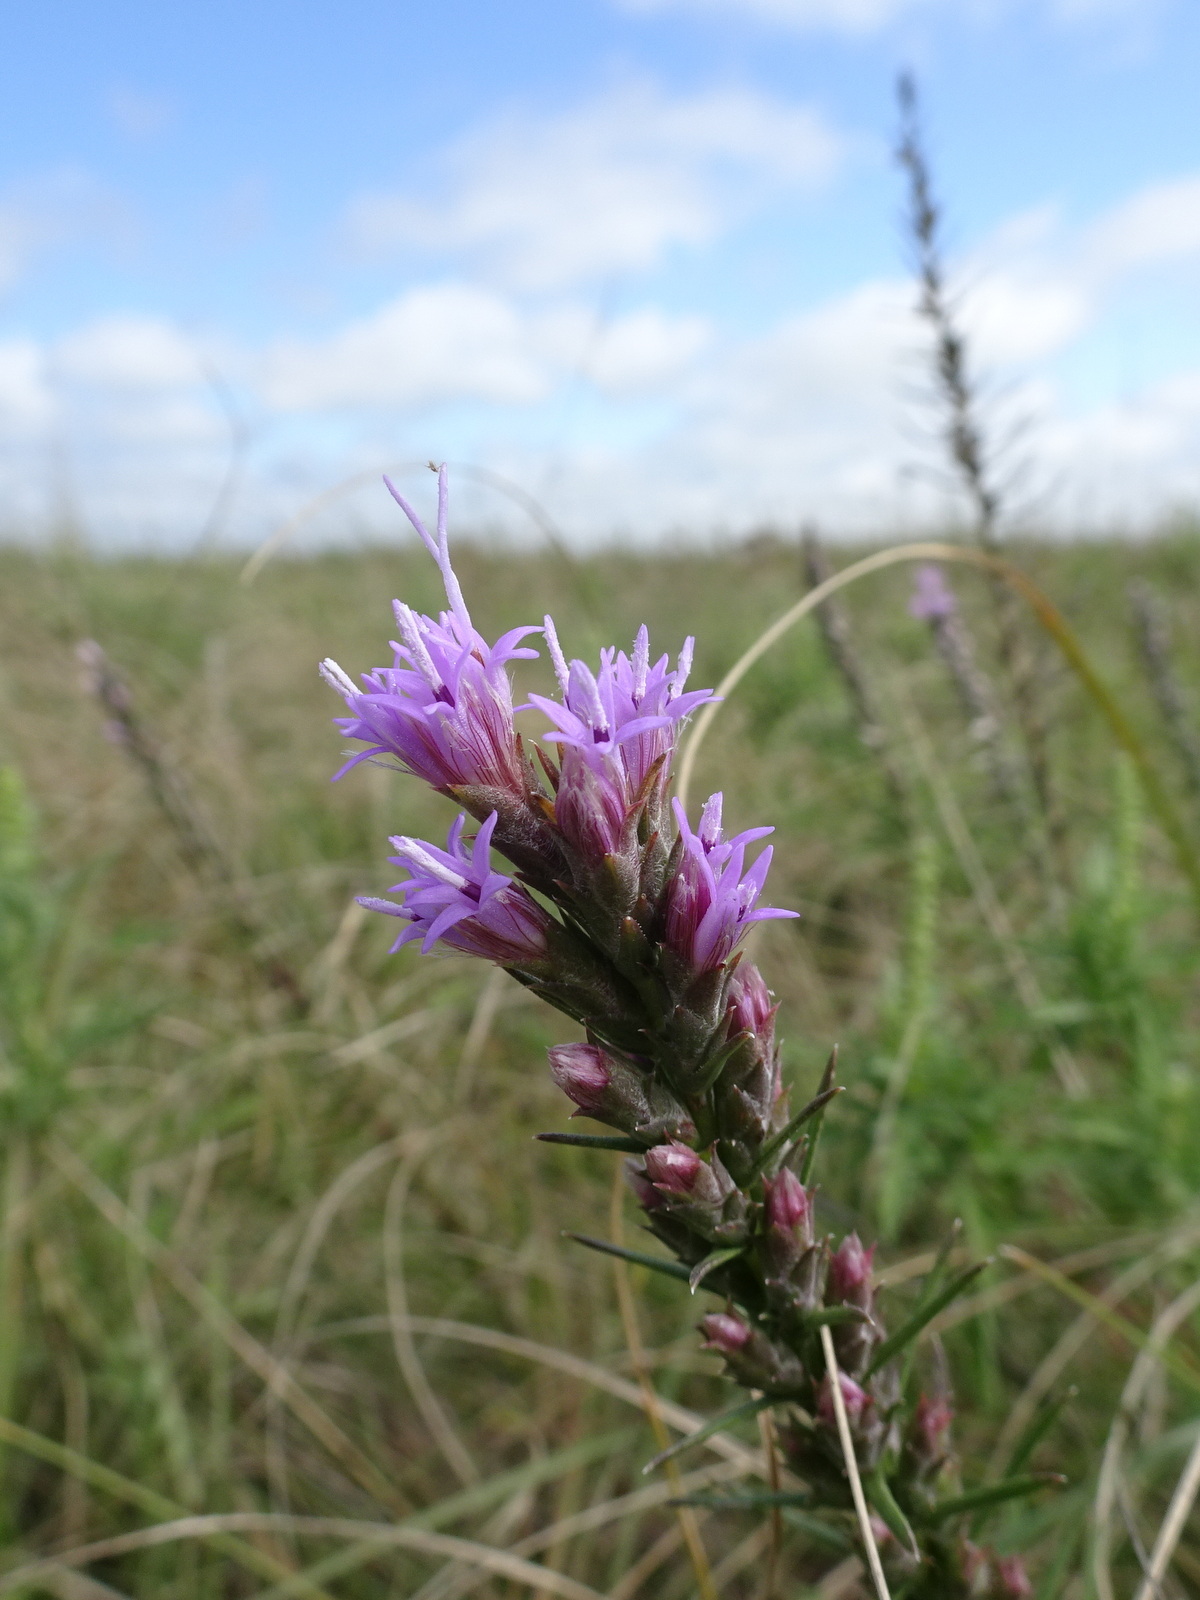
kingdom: Plantae
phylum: Tracheophyta
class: Magnoliopsida
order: Asterales
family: Asteraceae
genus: Liatris
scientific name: Liatris punctata
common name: Dotted gayfeather
